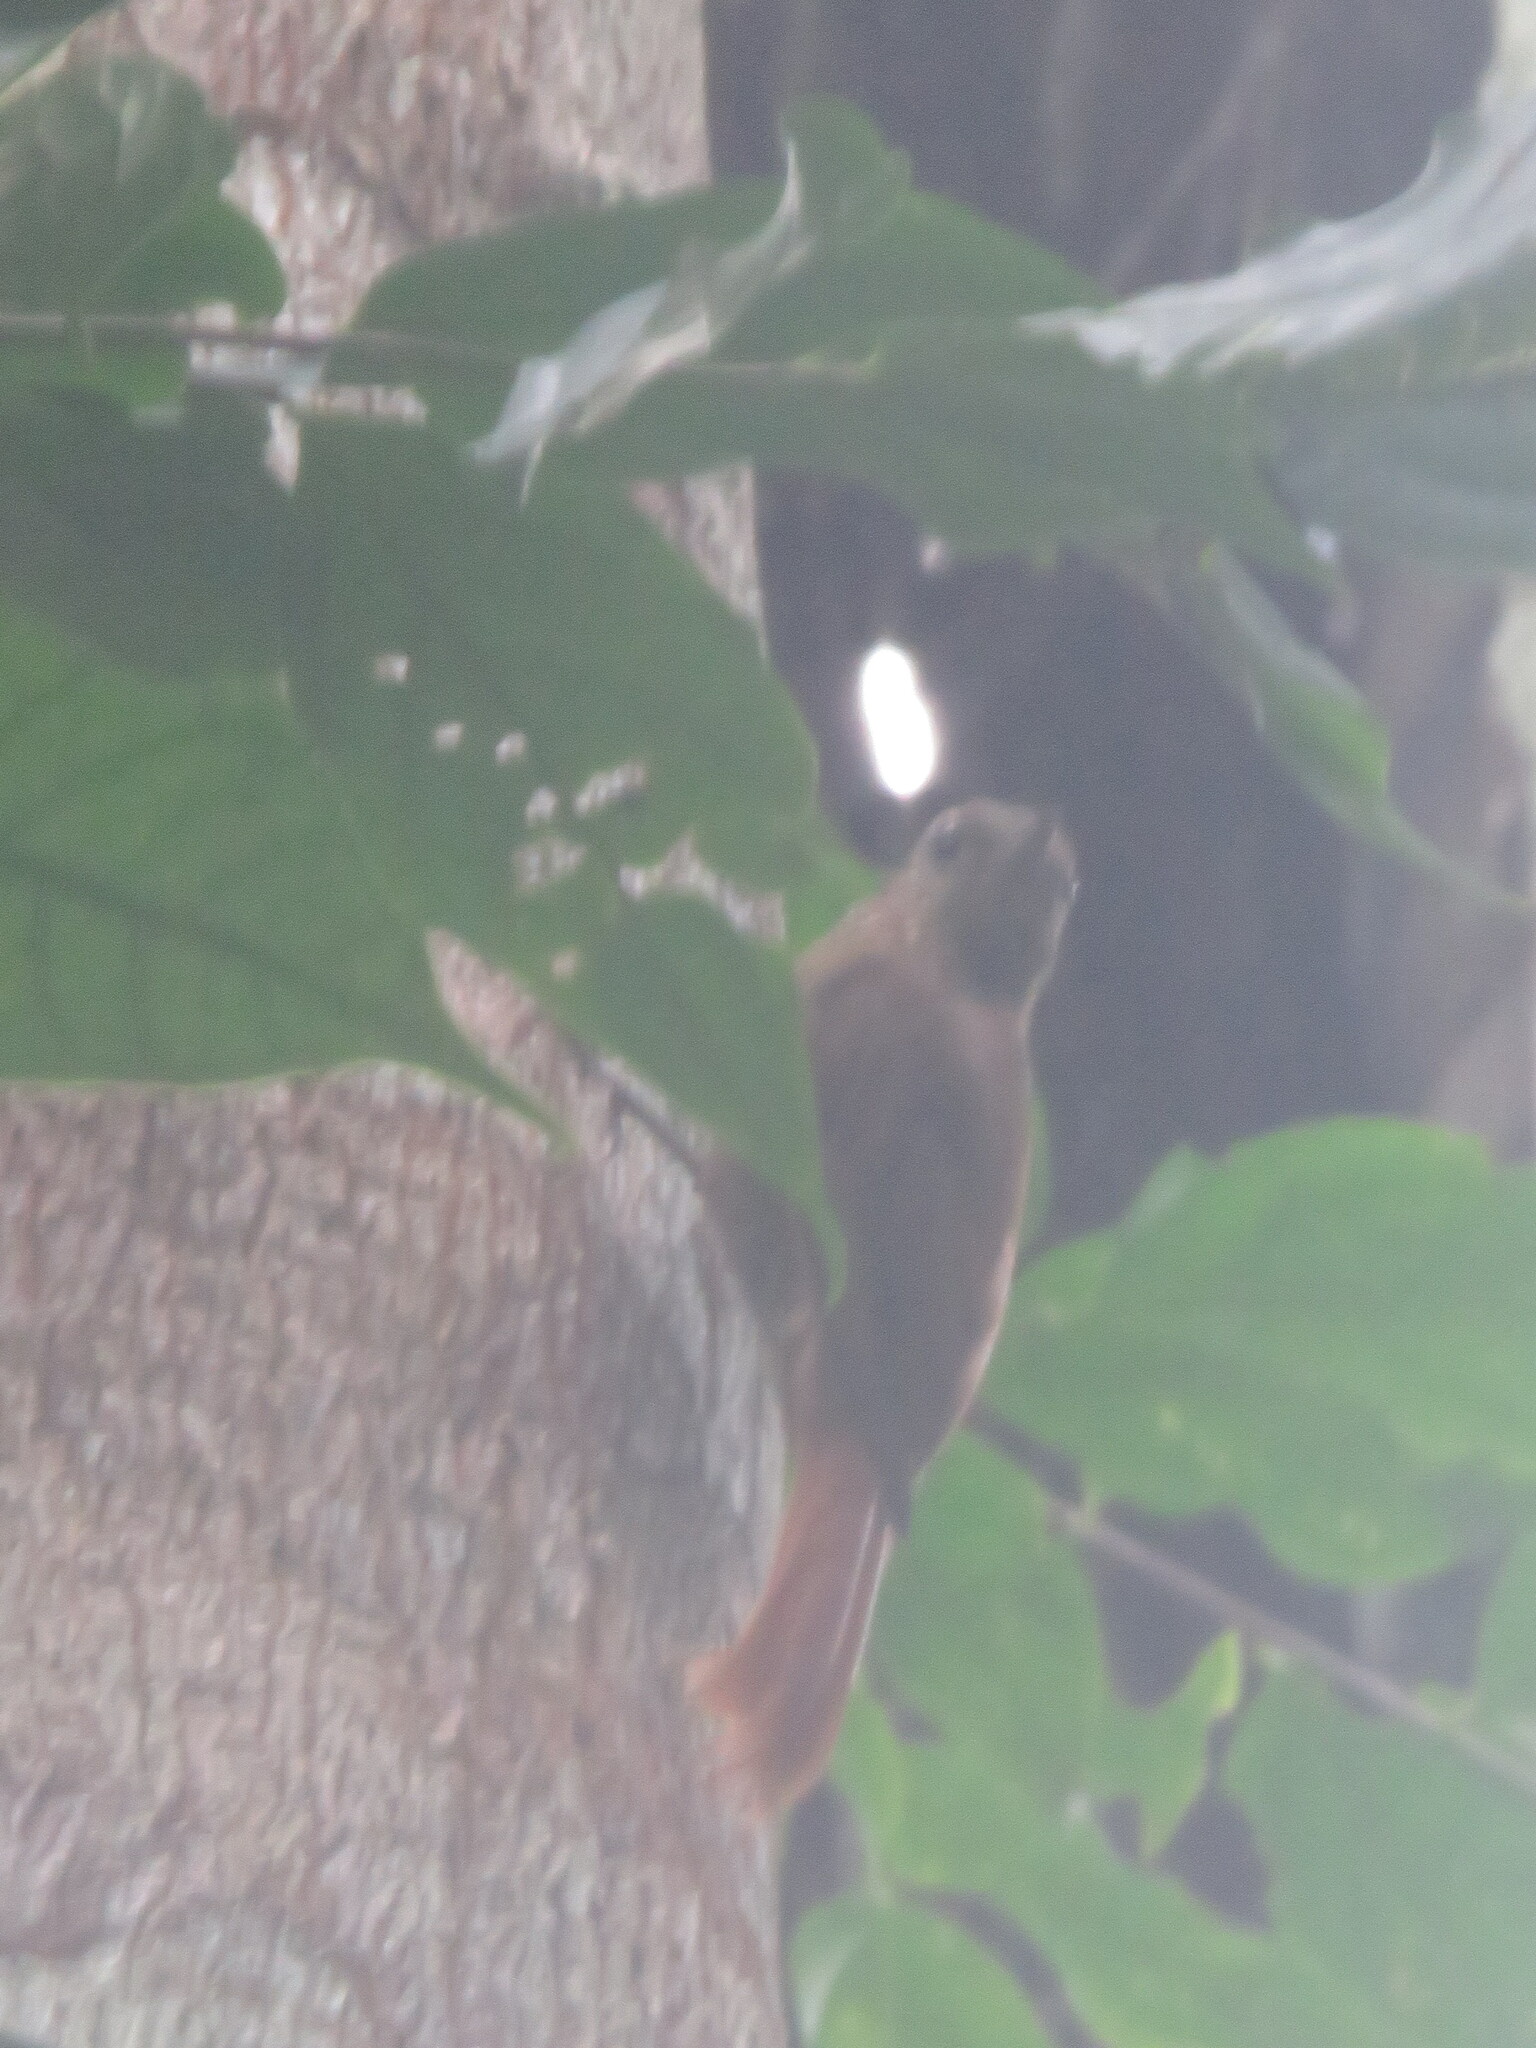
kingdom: Animalia
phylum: Chordata
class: Aves
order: Passeriformes
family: Furnariidae
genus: Glyphorynchus
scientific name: Glyphorynchus spirurus
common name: Wedge-billed woodcreeper
